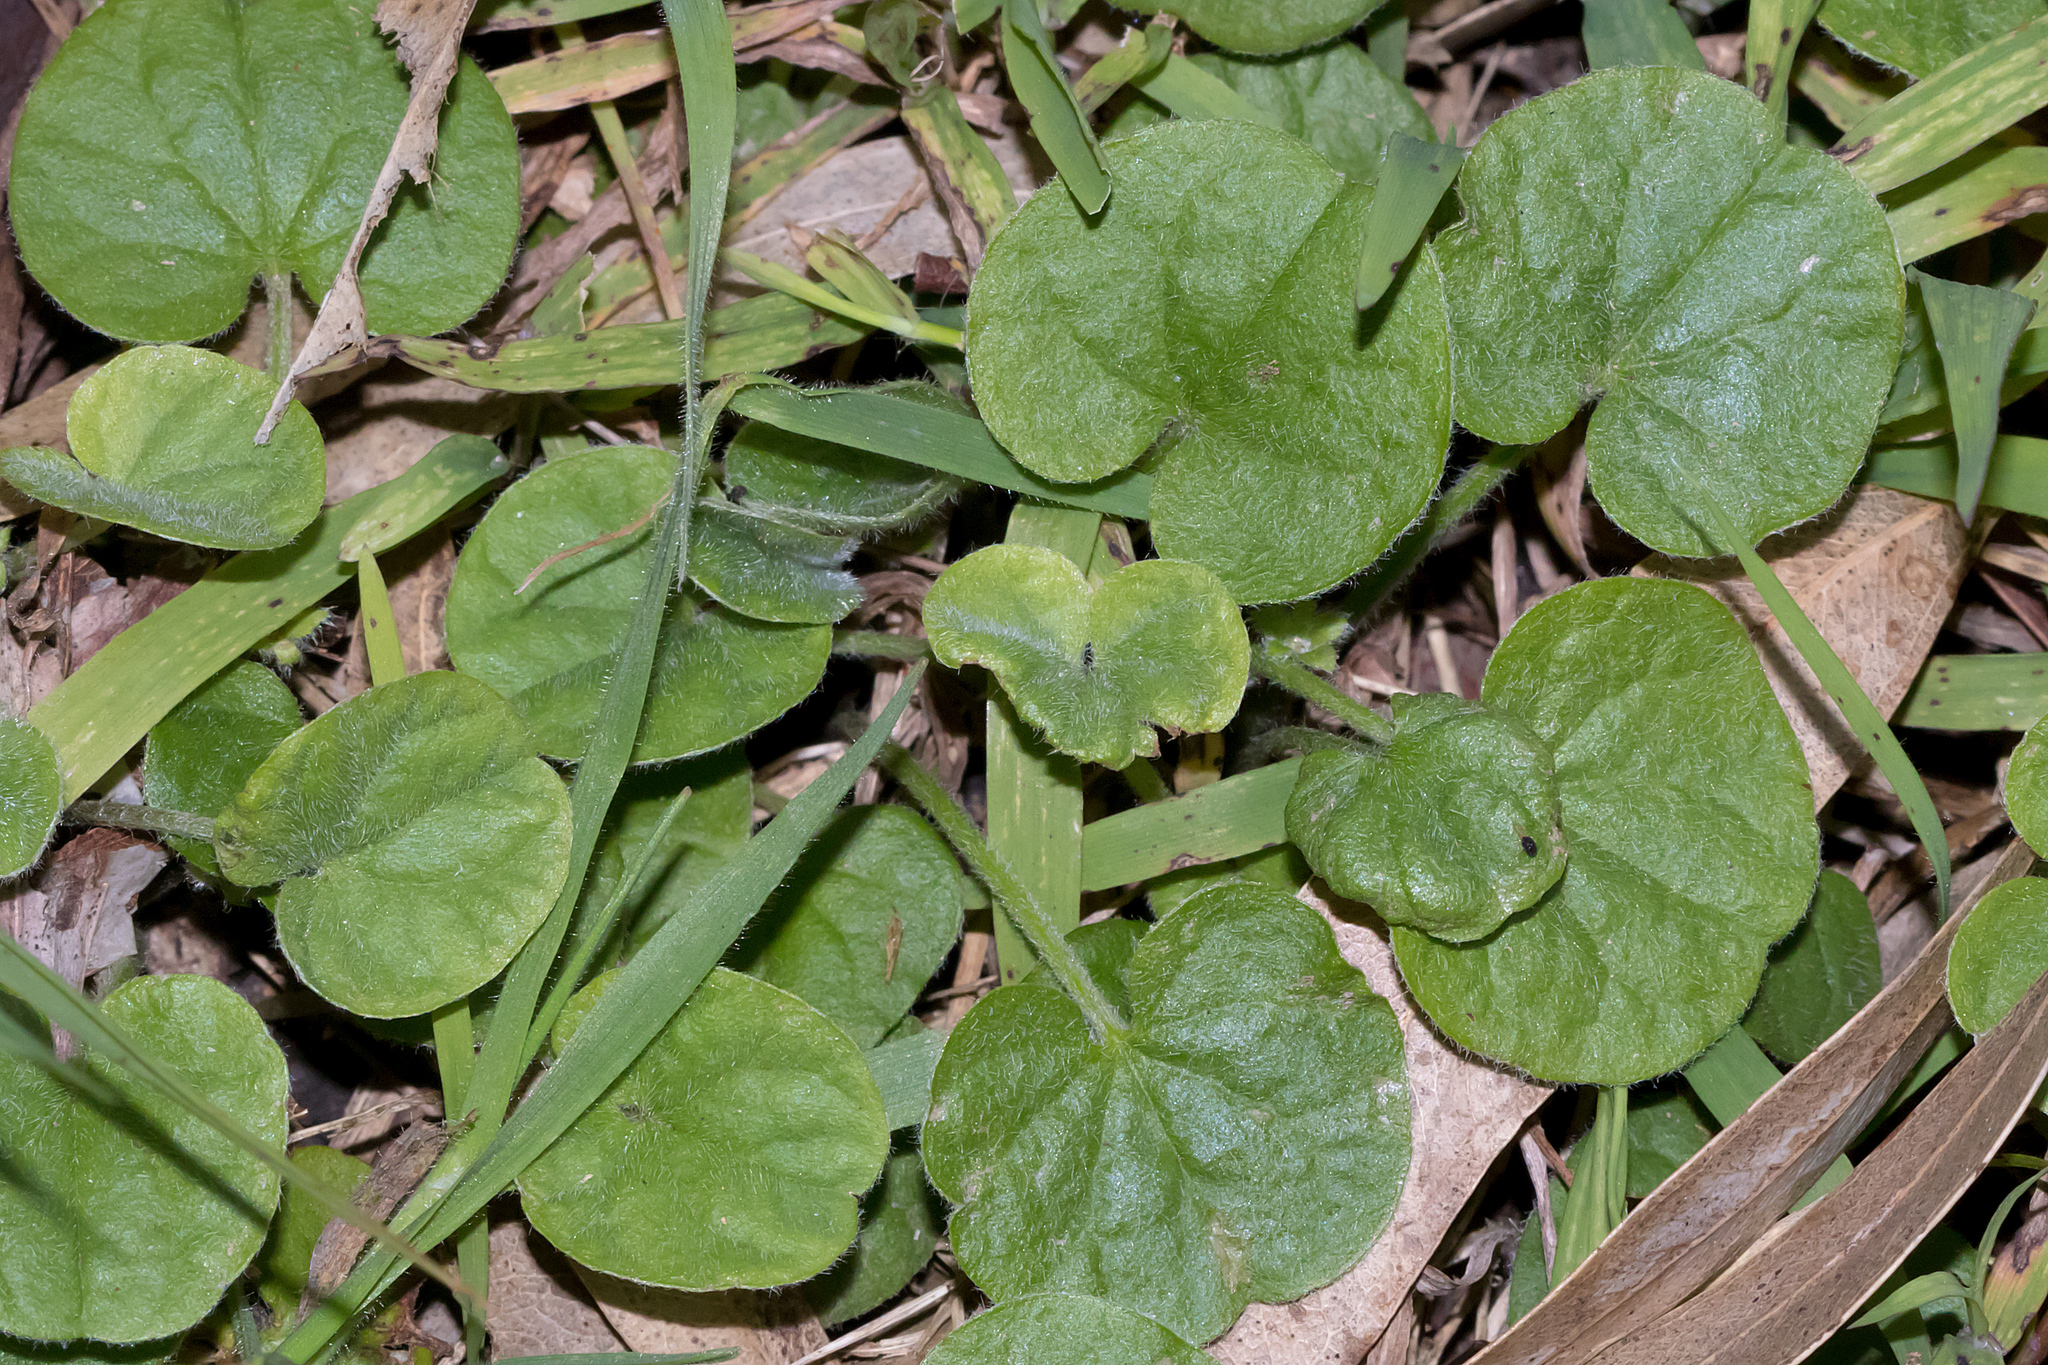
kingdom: Plantae
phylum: Tracheophyta
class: Magnoliopsida
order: Solanales
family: Convolvulaceae
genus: Dichondra
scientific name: Dichondra repens
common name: Kidneyweed
